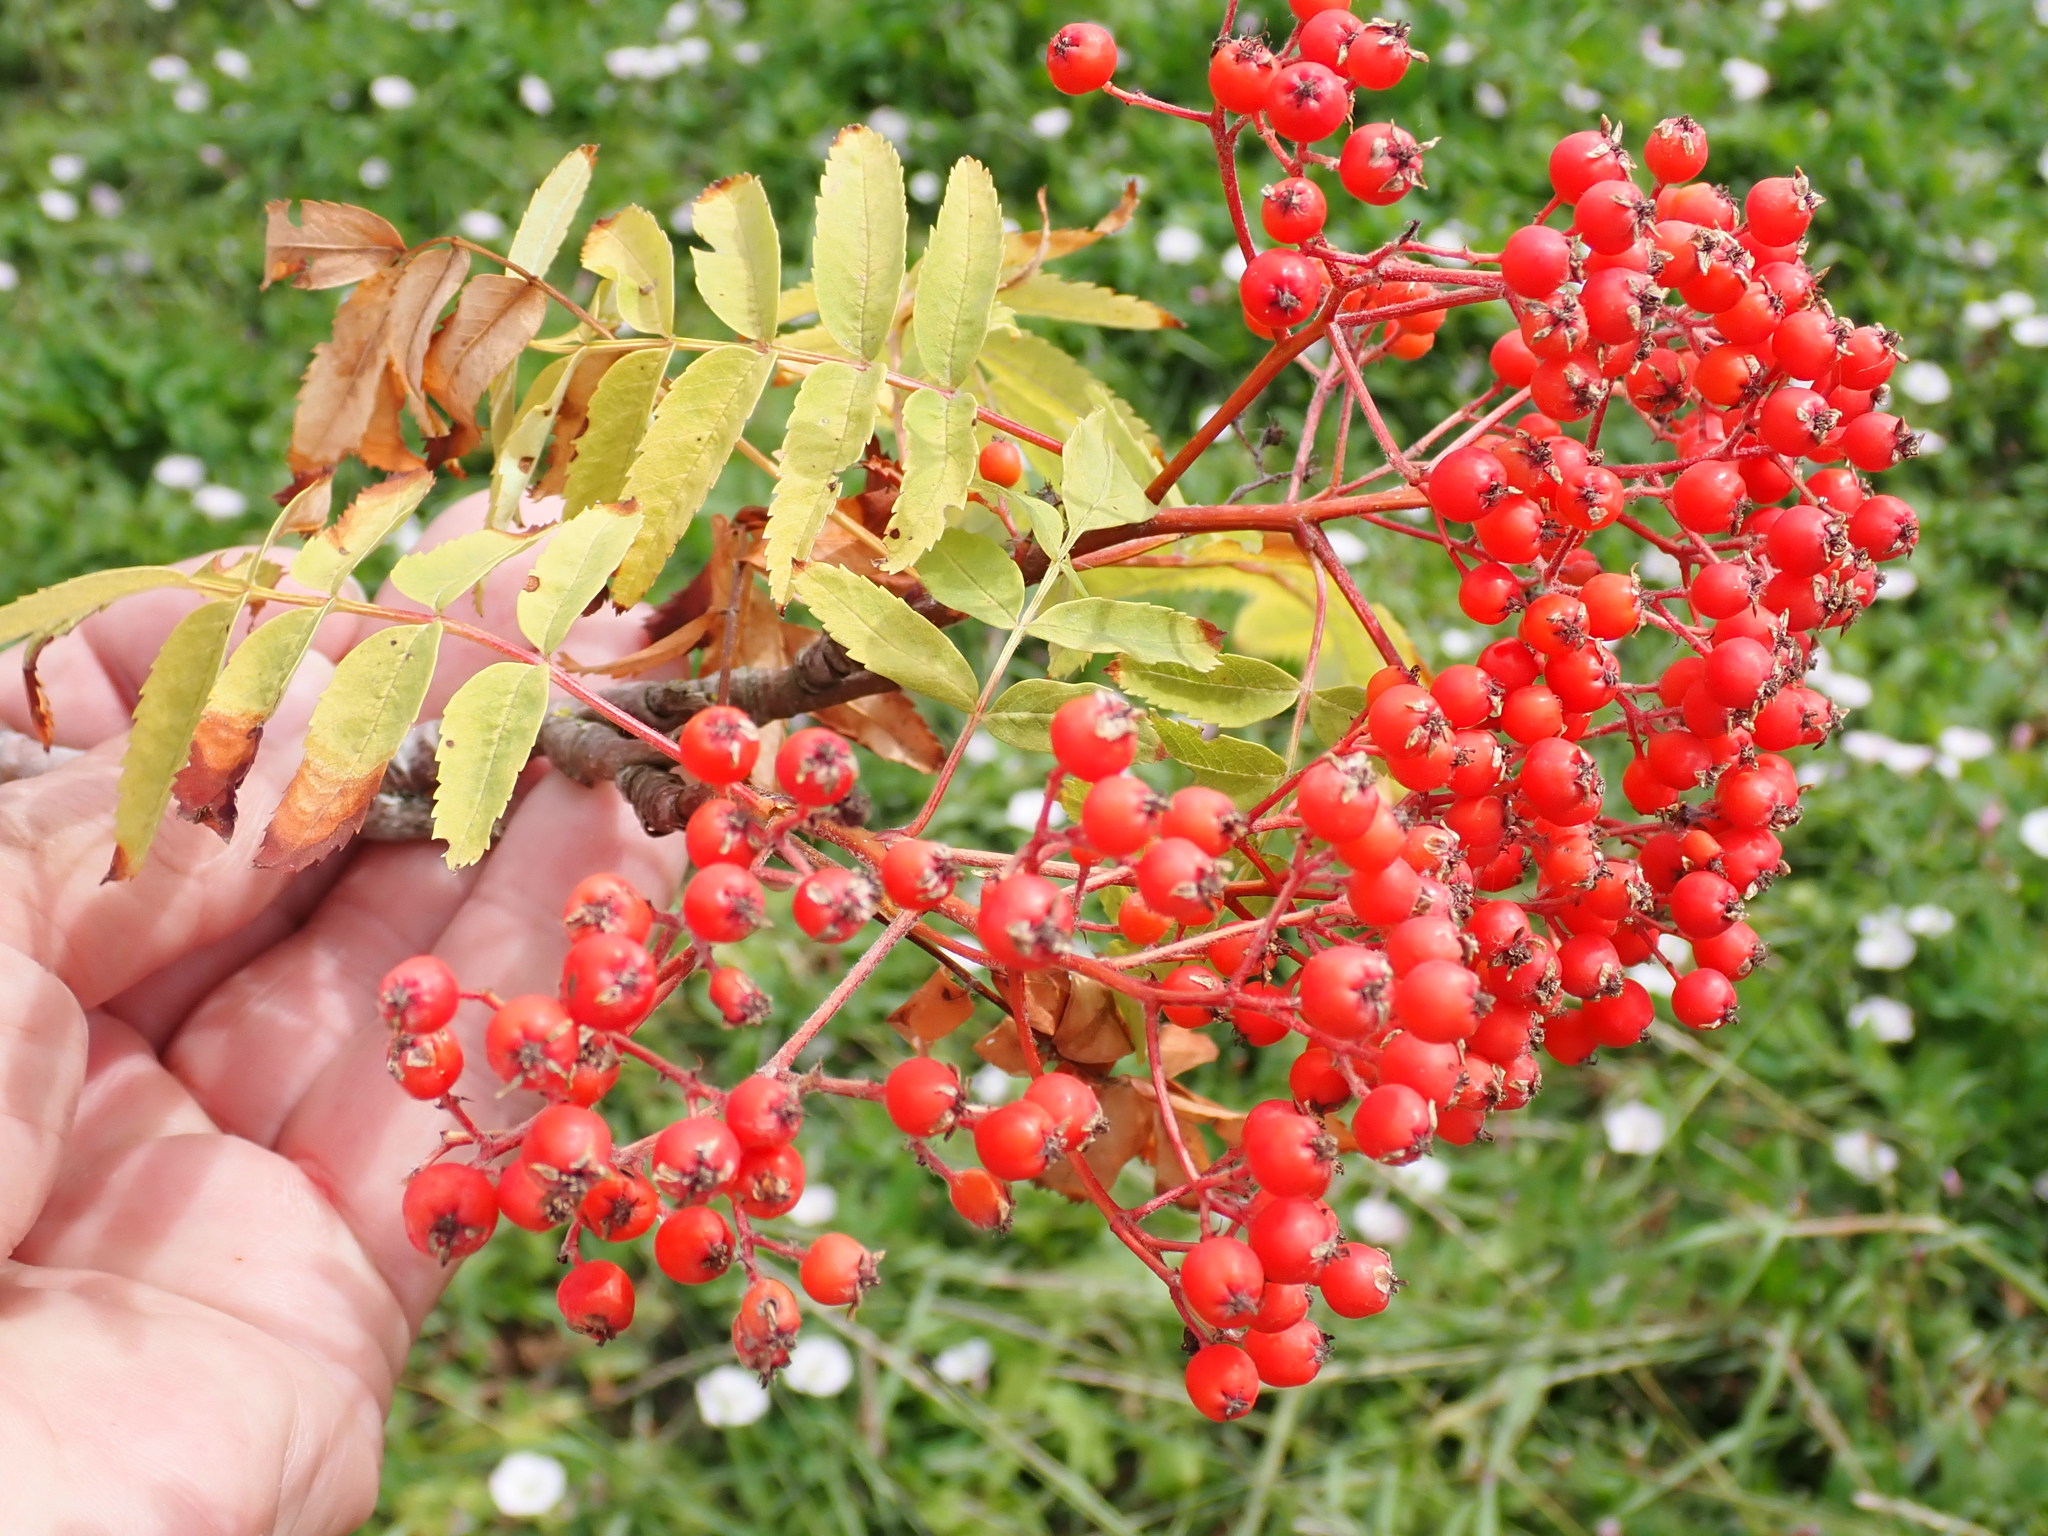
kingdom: Plantae
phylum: Tracheophyta
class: Magnoliopsida
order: Rosales
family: Rosaceae
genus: Sorbus
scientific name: Sorbus aucuparia
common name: Rowan
